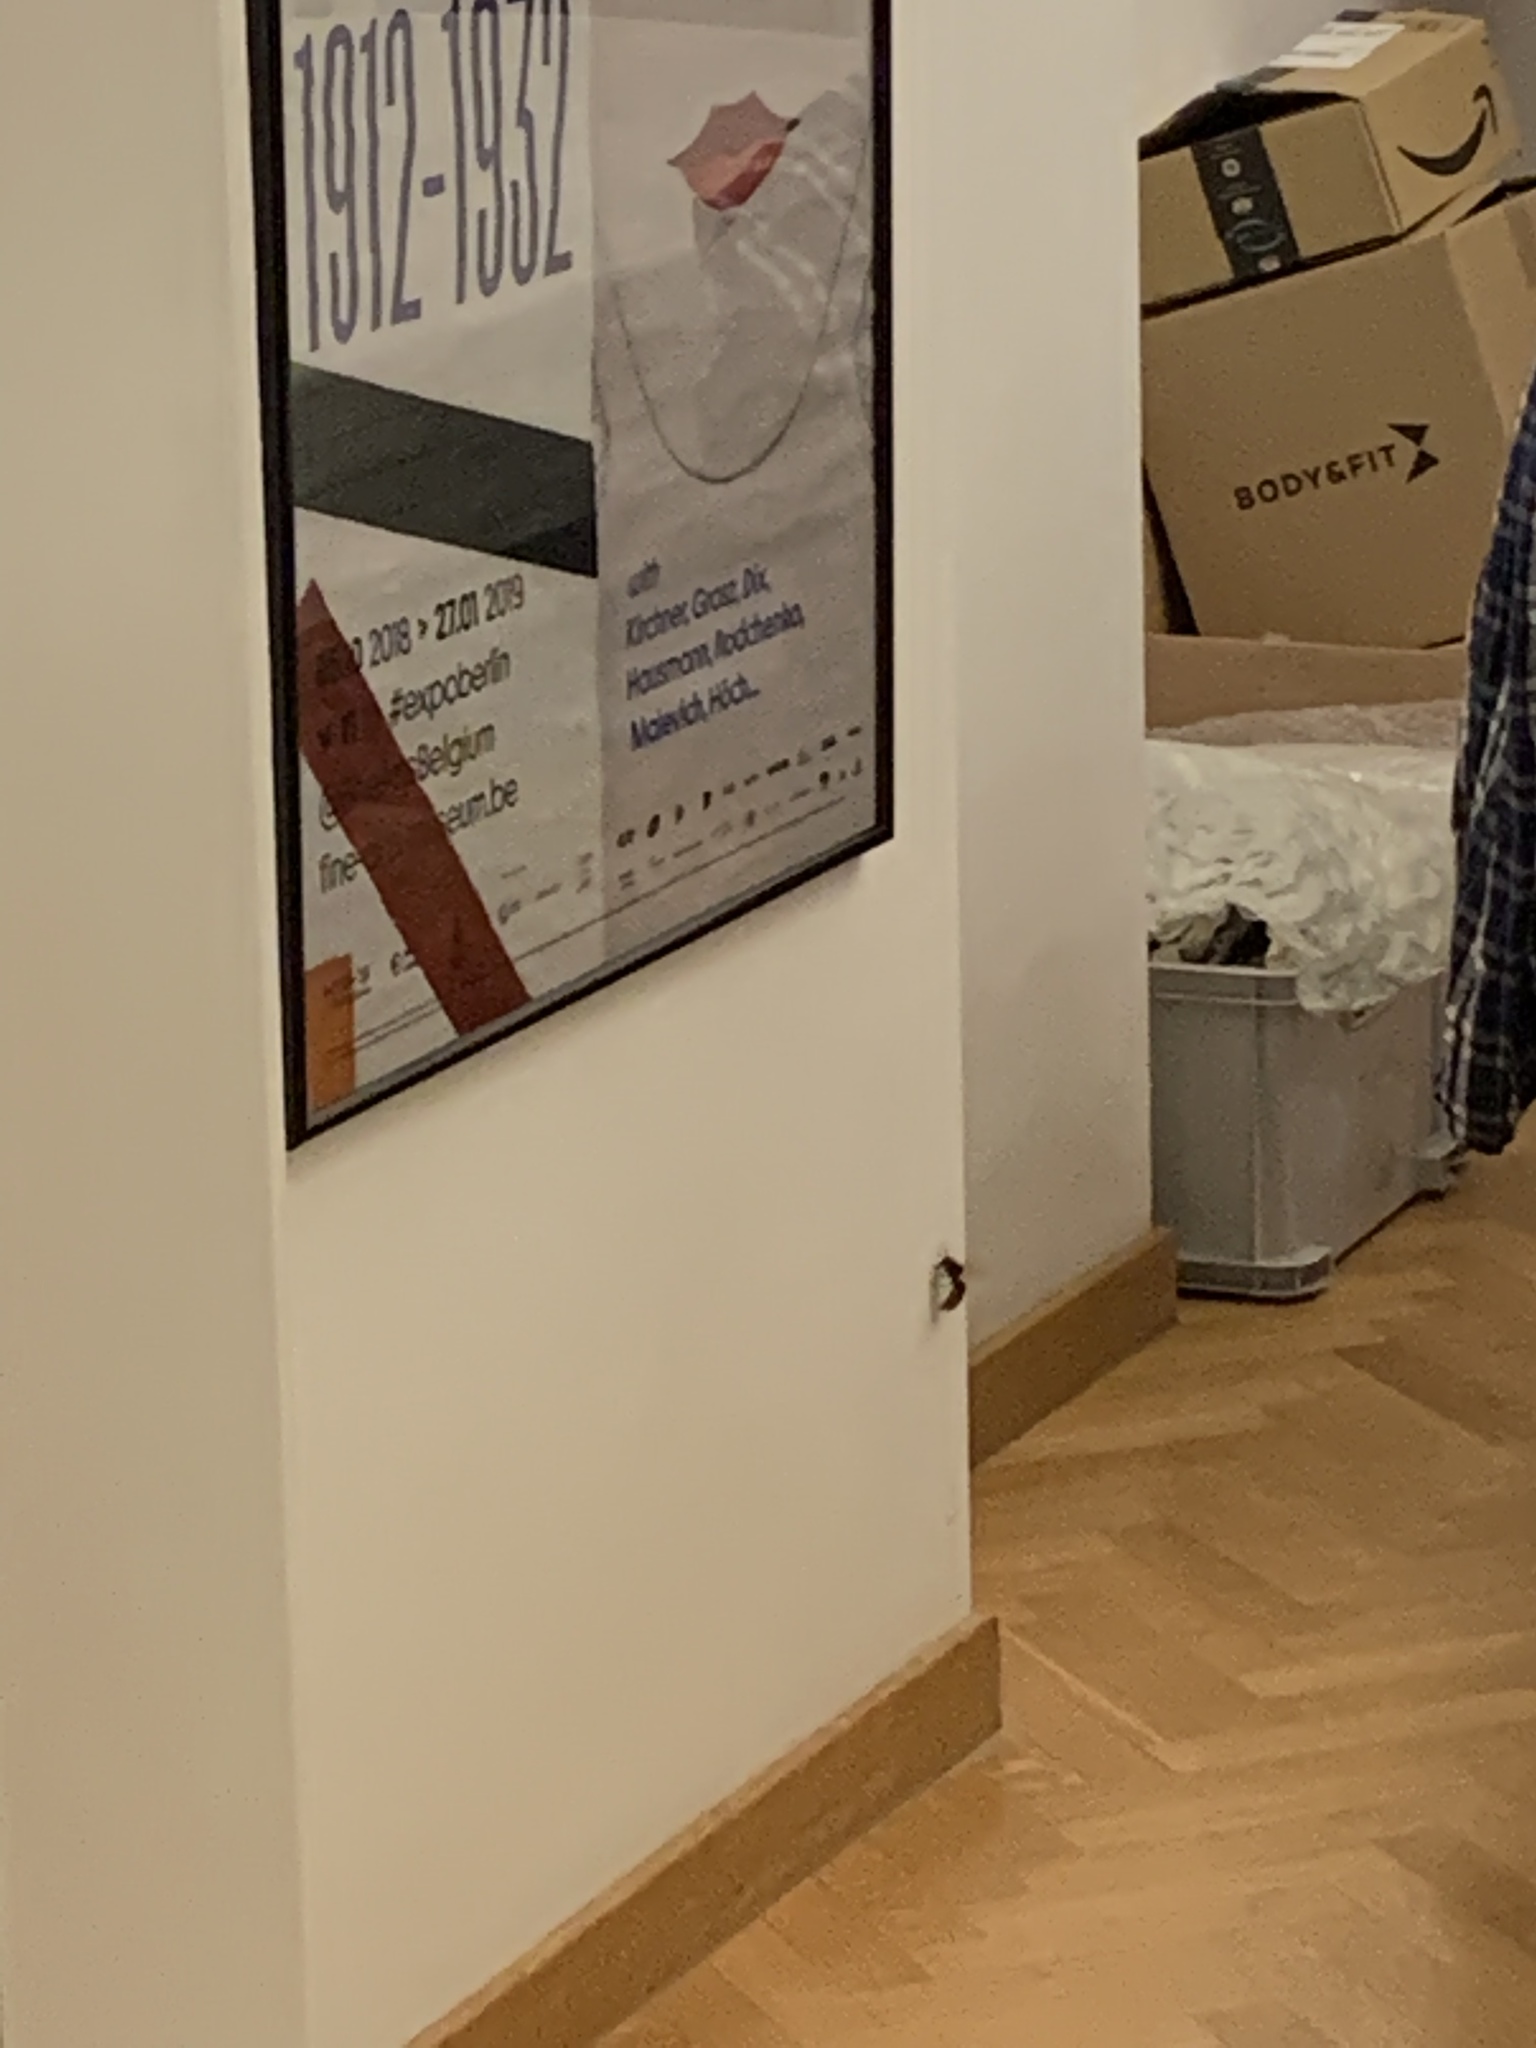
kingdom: Animalia
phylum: Arthropoda
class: Insecta
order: Hymenoptera
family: Vespidae
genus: Vespa
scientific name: Vespa crabro
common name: Hornet
